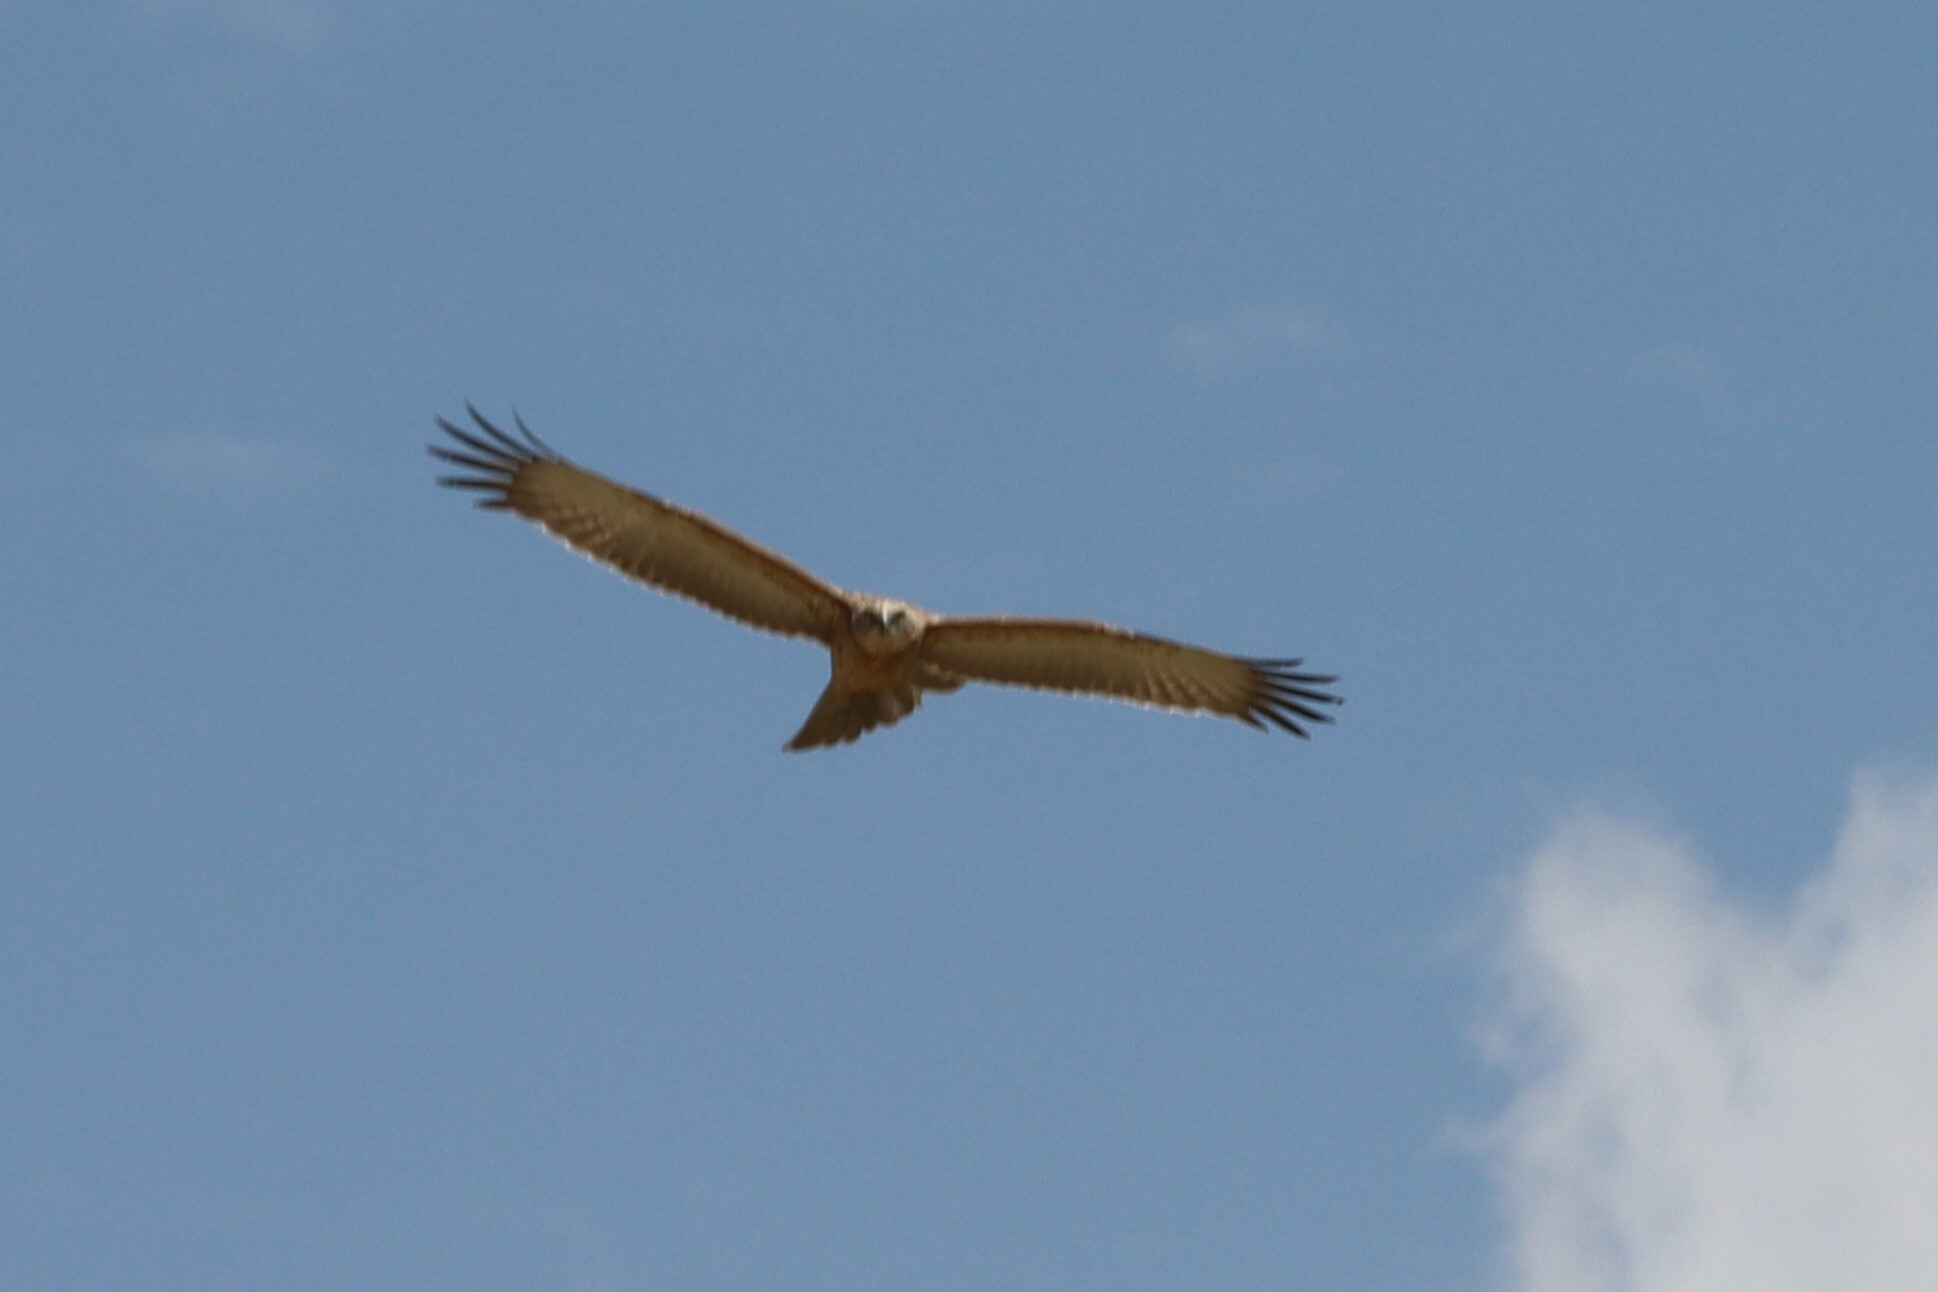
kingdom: Animalia
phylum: Chordata
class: Aves
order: Accipitriformes
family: Accipitridae
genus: Circaetus
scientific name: Circaetus pectoralis
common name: Black-chested snake eagle
